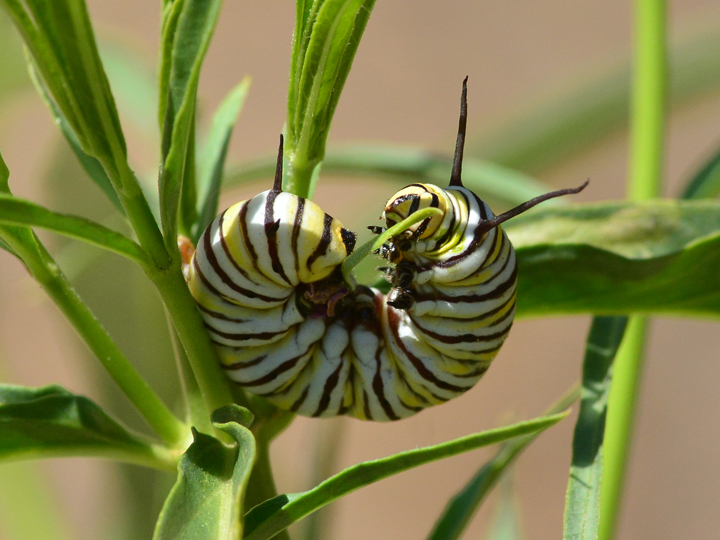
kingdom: Animalia
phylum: Arthropoda
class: Insecta
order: Lepidoptera
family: Nymphalidae
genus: Danaus
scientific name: Danaus plexippus
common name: Monarch
